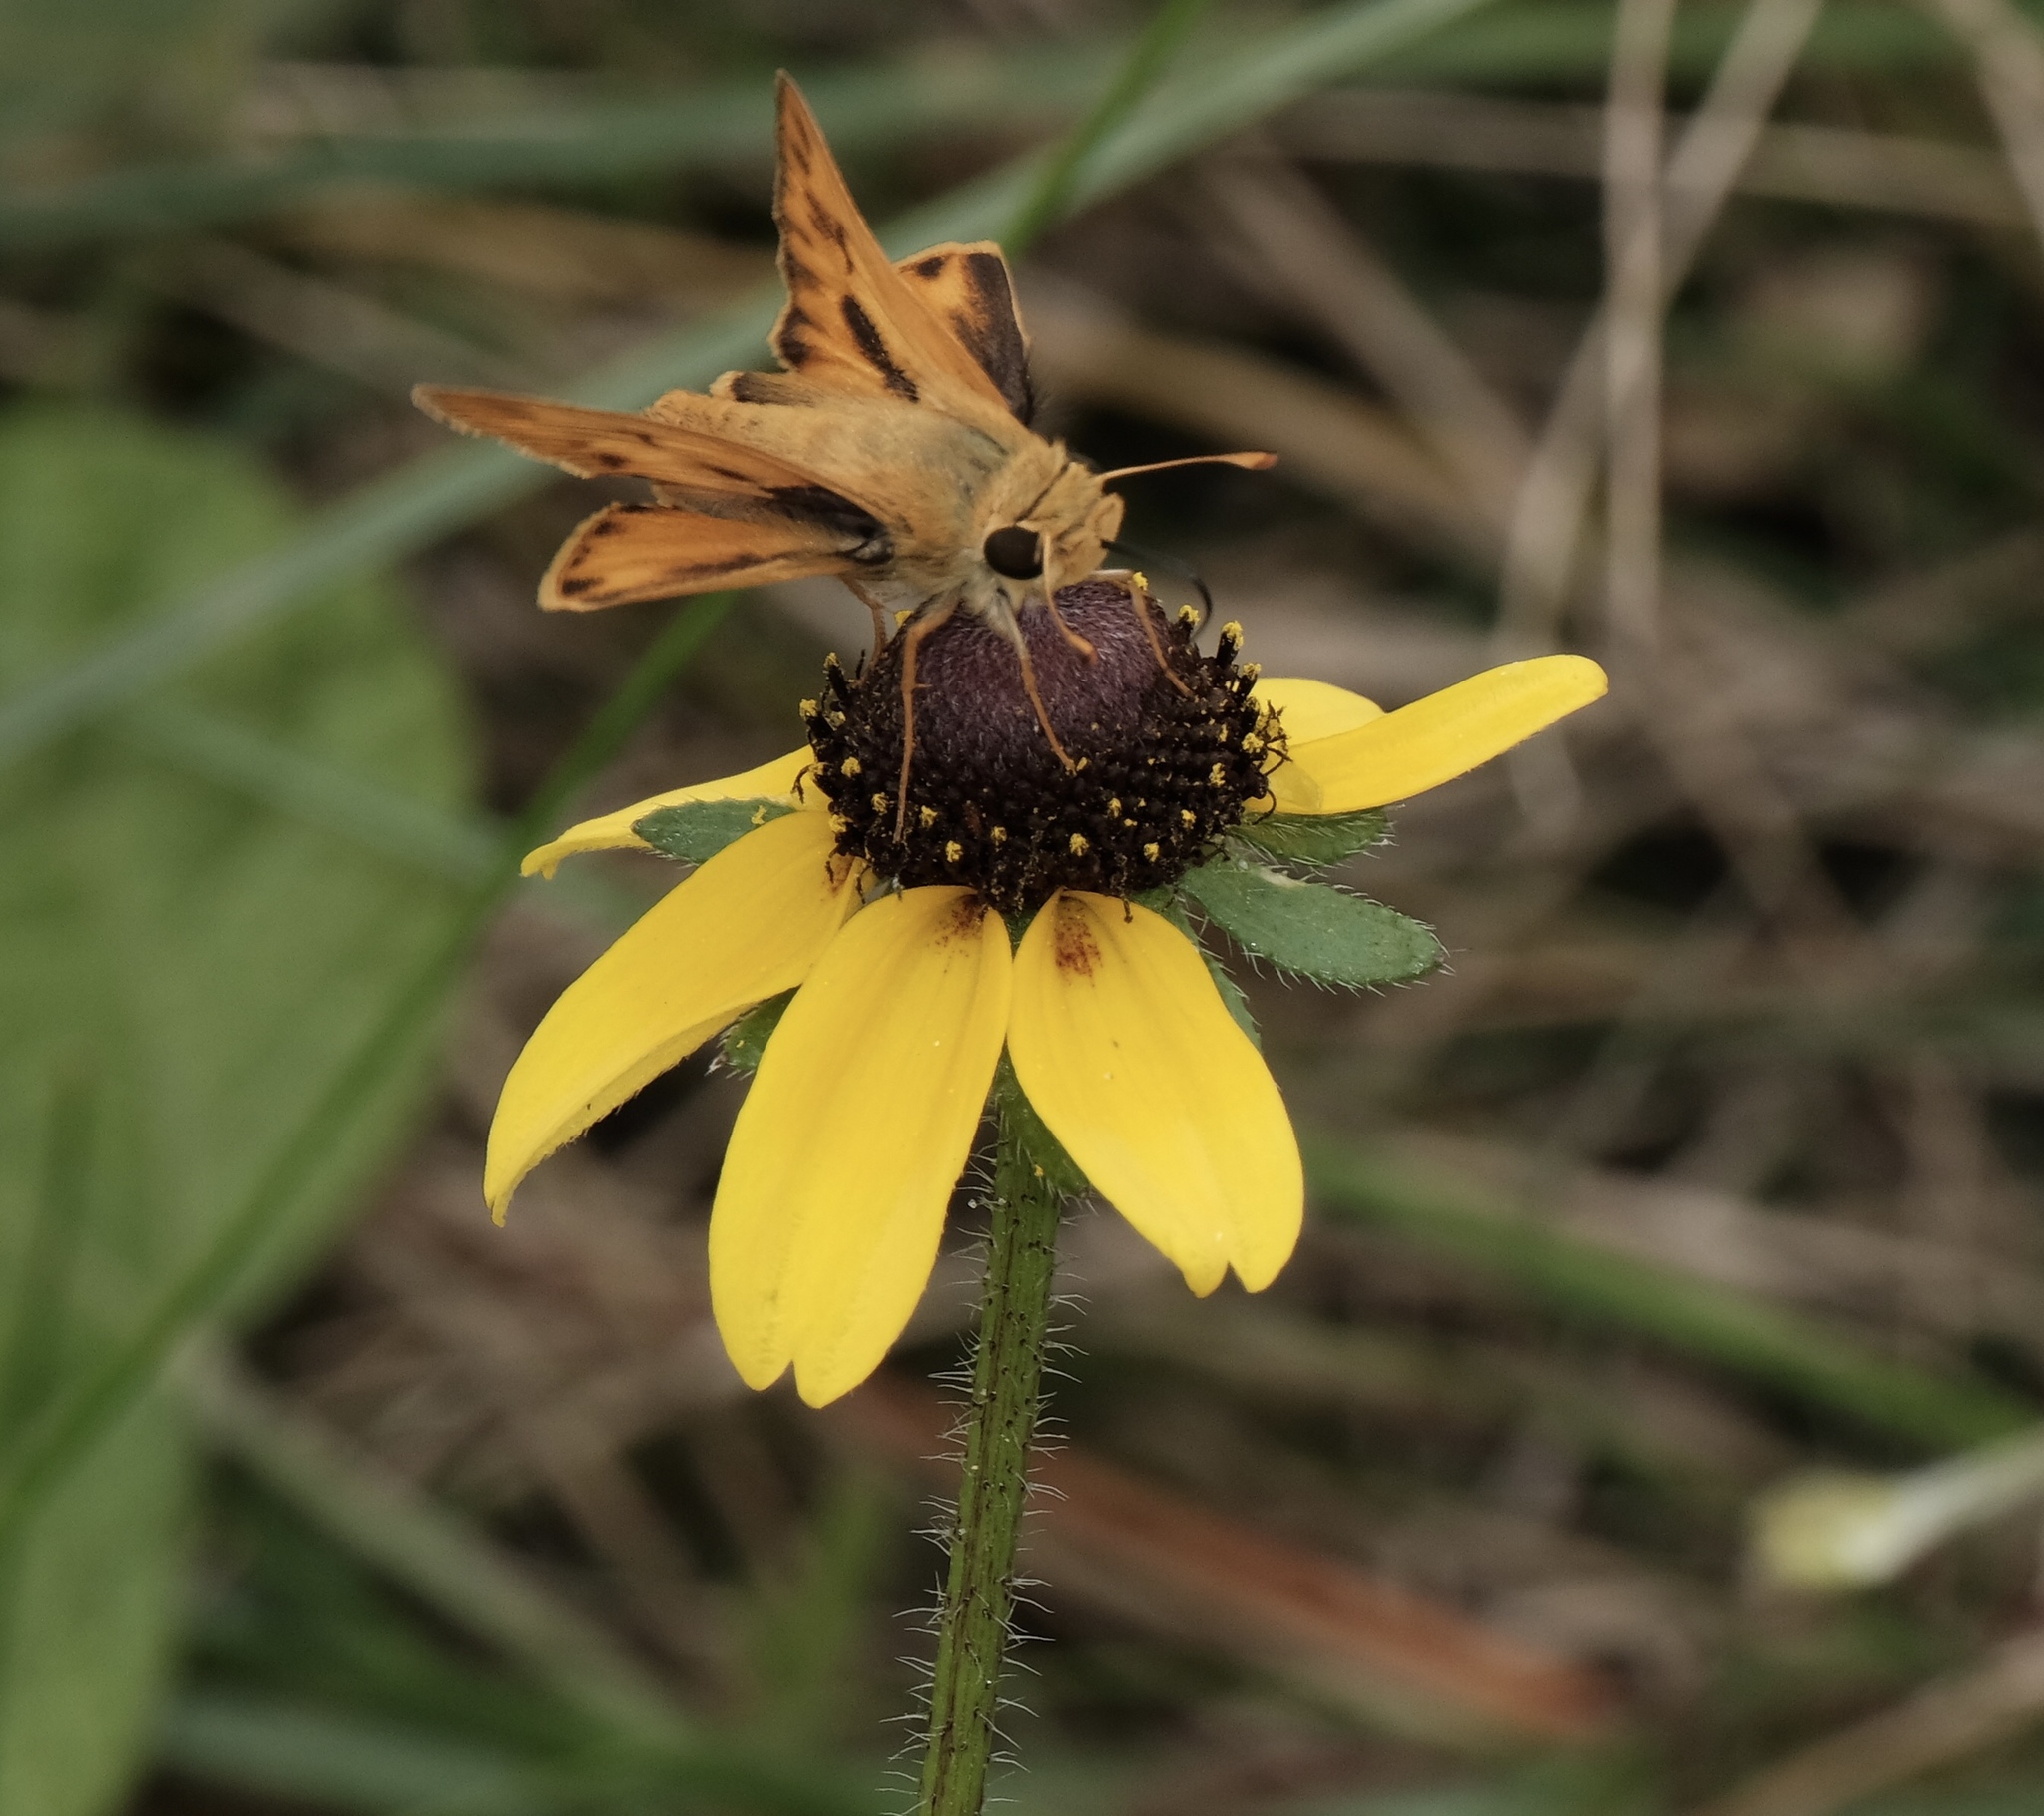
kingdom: Animalia
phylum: Arthropoda
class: Insecta
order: Lepidoptera
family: Hesperiidae
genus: Hylephila
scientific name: Hylephila phyleus
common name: Fiery skipper
